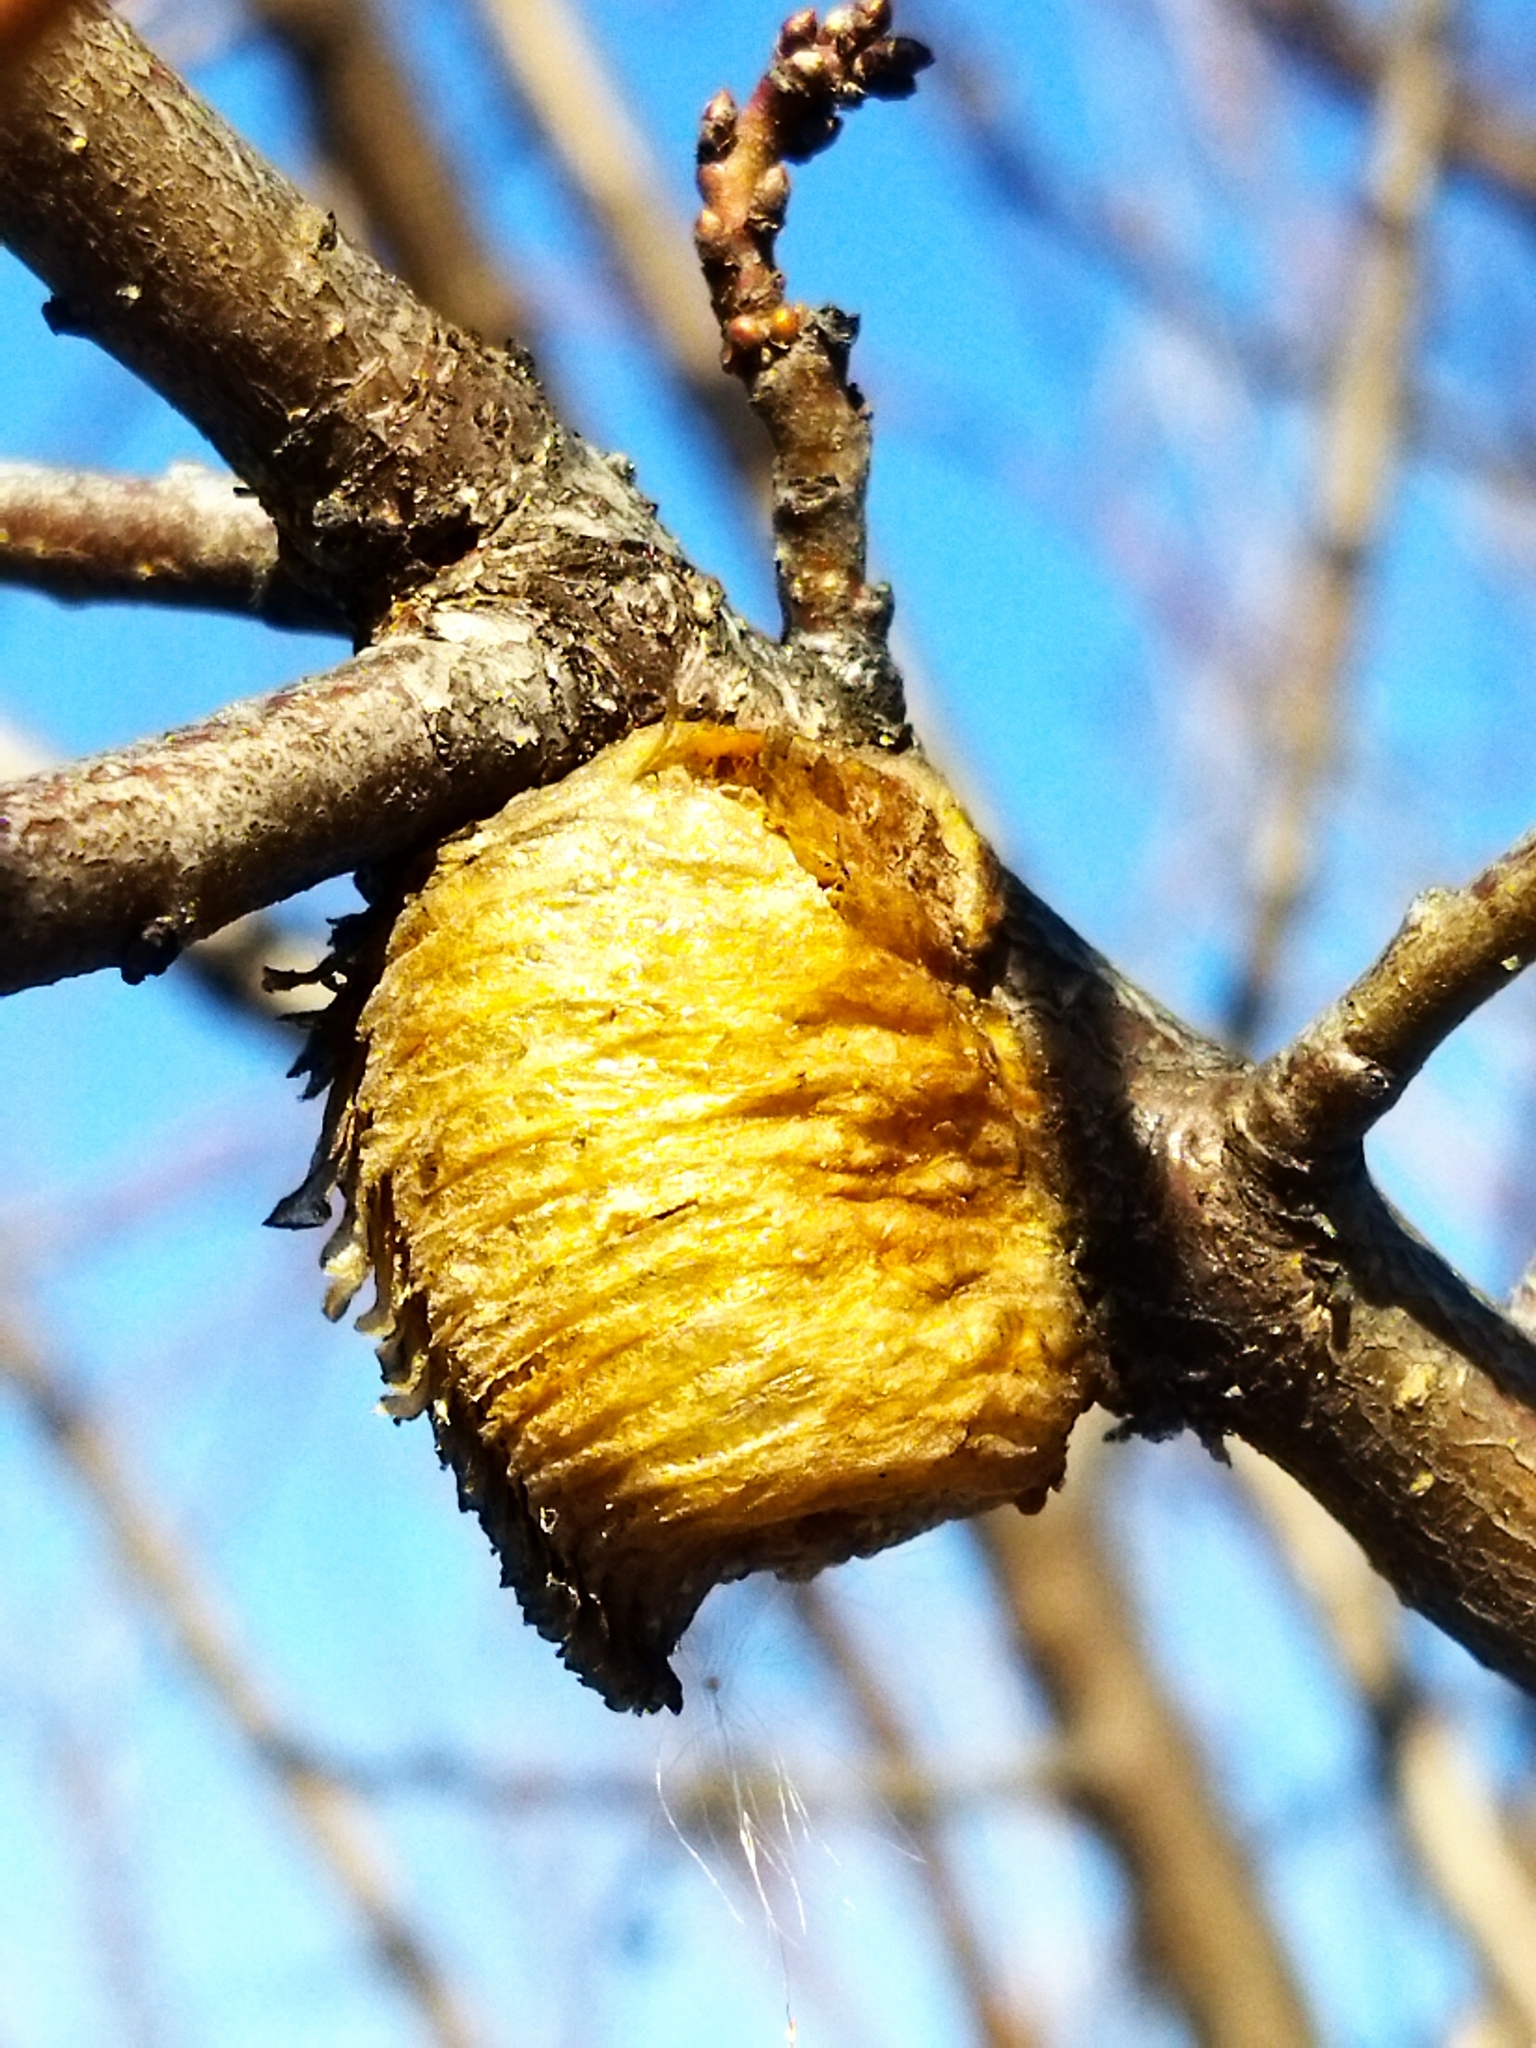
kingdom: Animalia
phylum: Arthropoda
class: Insecta
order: Mantodea
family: Mantidae
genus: Hierodula
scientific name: Hierodula transcaucasica
